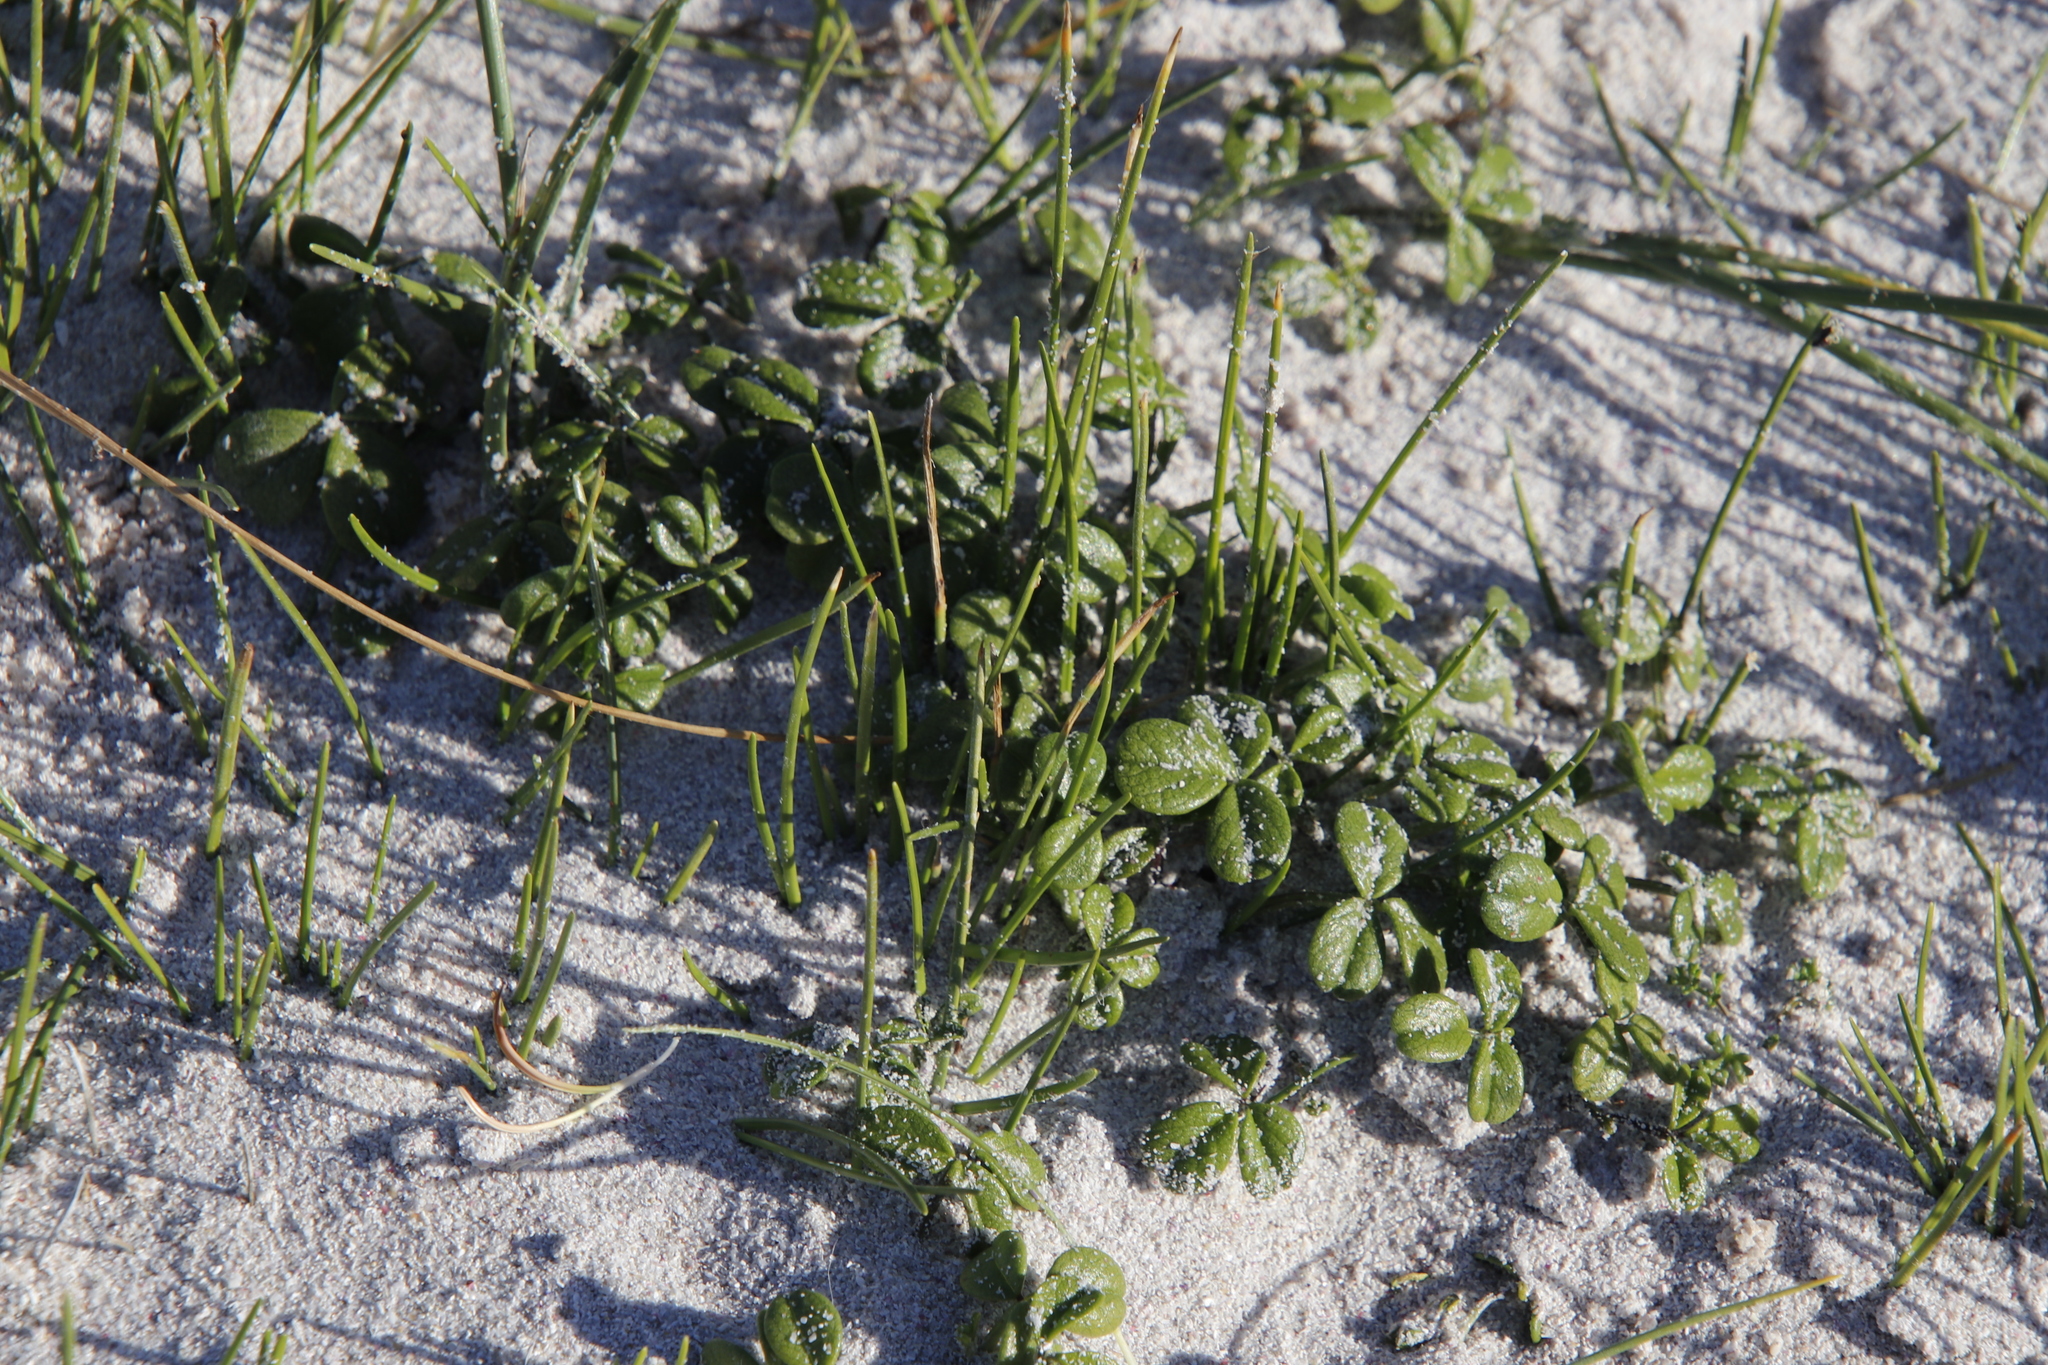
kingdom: Plantae
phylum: Tracheophyta
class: Magnoliopsida
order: Fabales
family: Fabaceae
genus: Psoralea
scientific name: Psoralea repens
